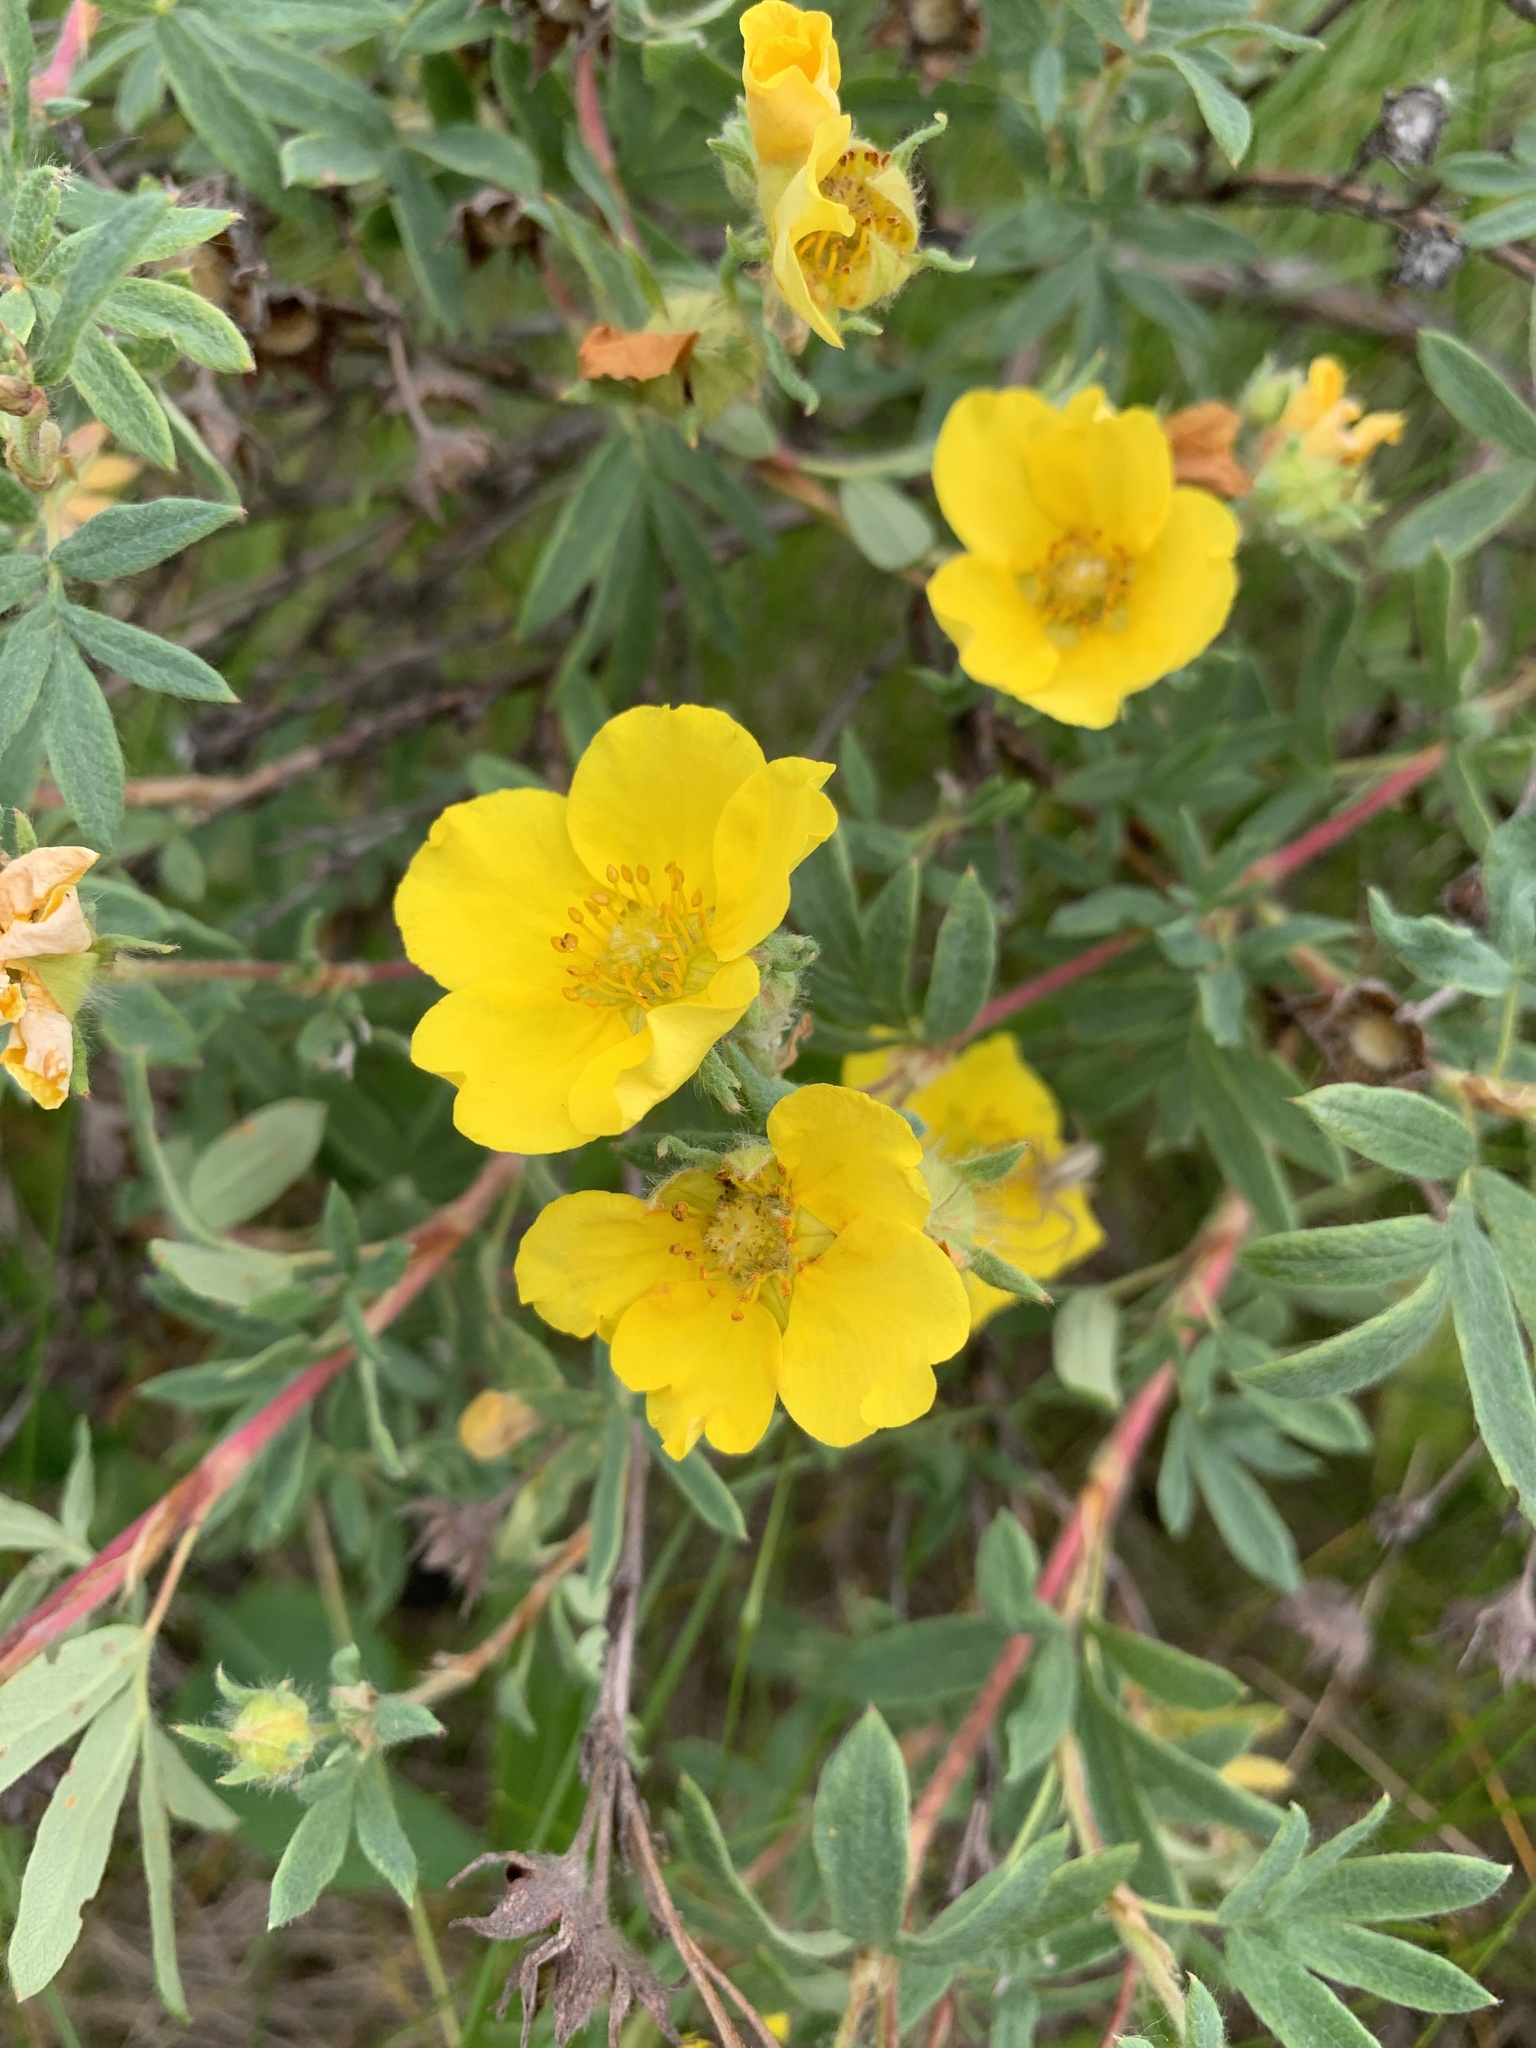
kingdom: Plantae
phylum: Tracheophyta
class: Magnoliopsida
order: Rosales
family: Rosaceae
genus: Dasiphora
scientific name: Dasiphora fruticosa
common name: Shrubby cinquefoil
